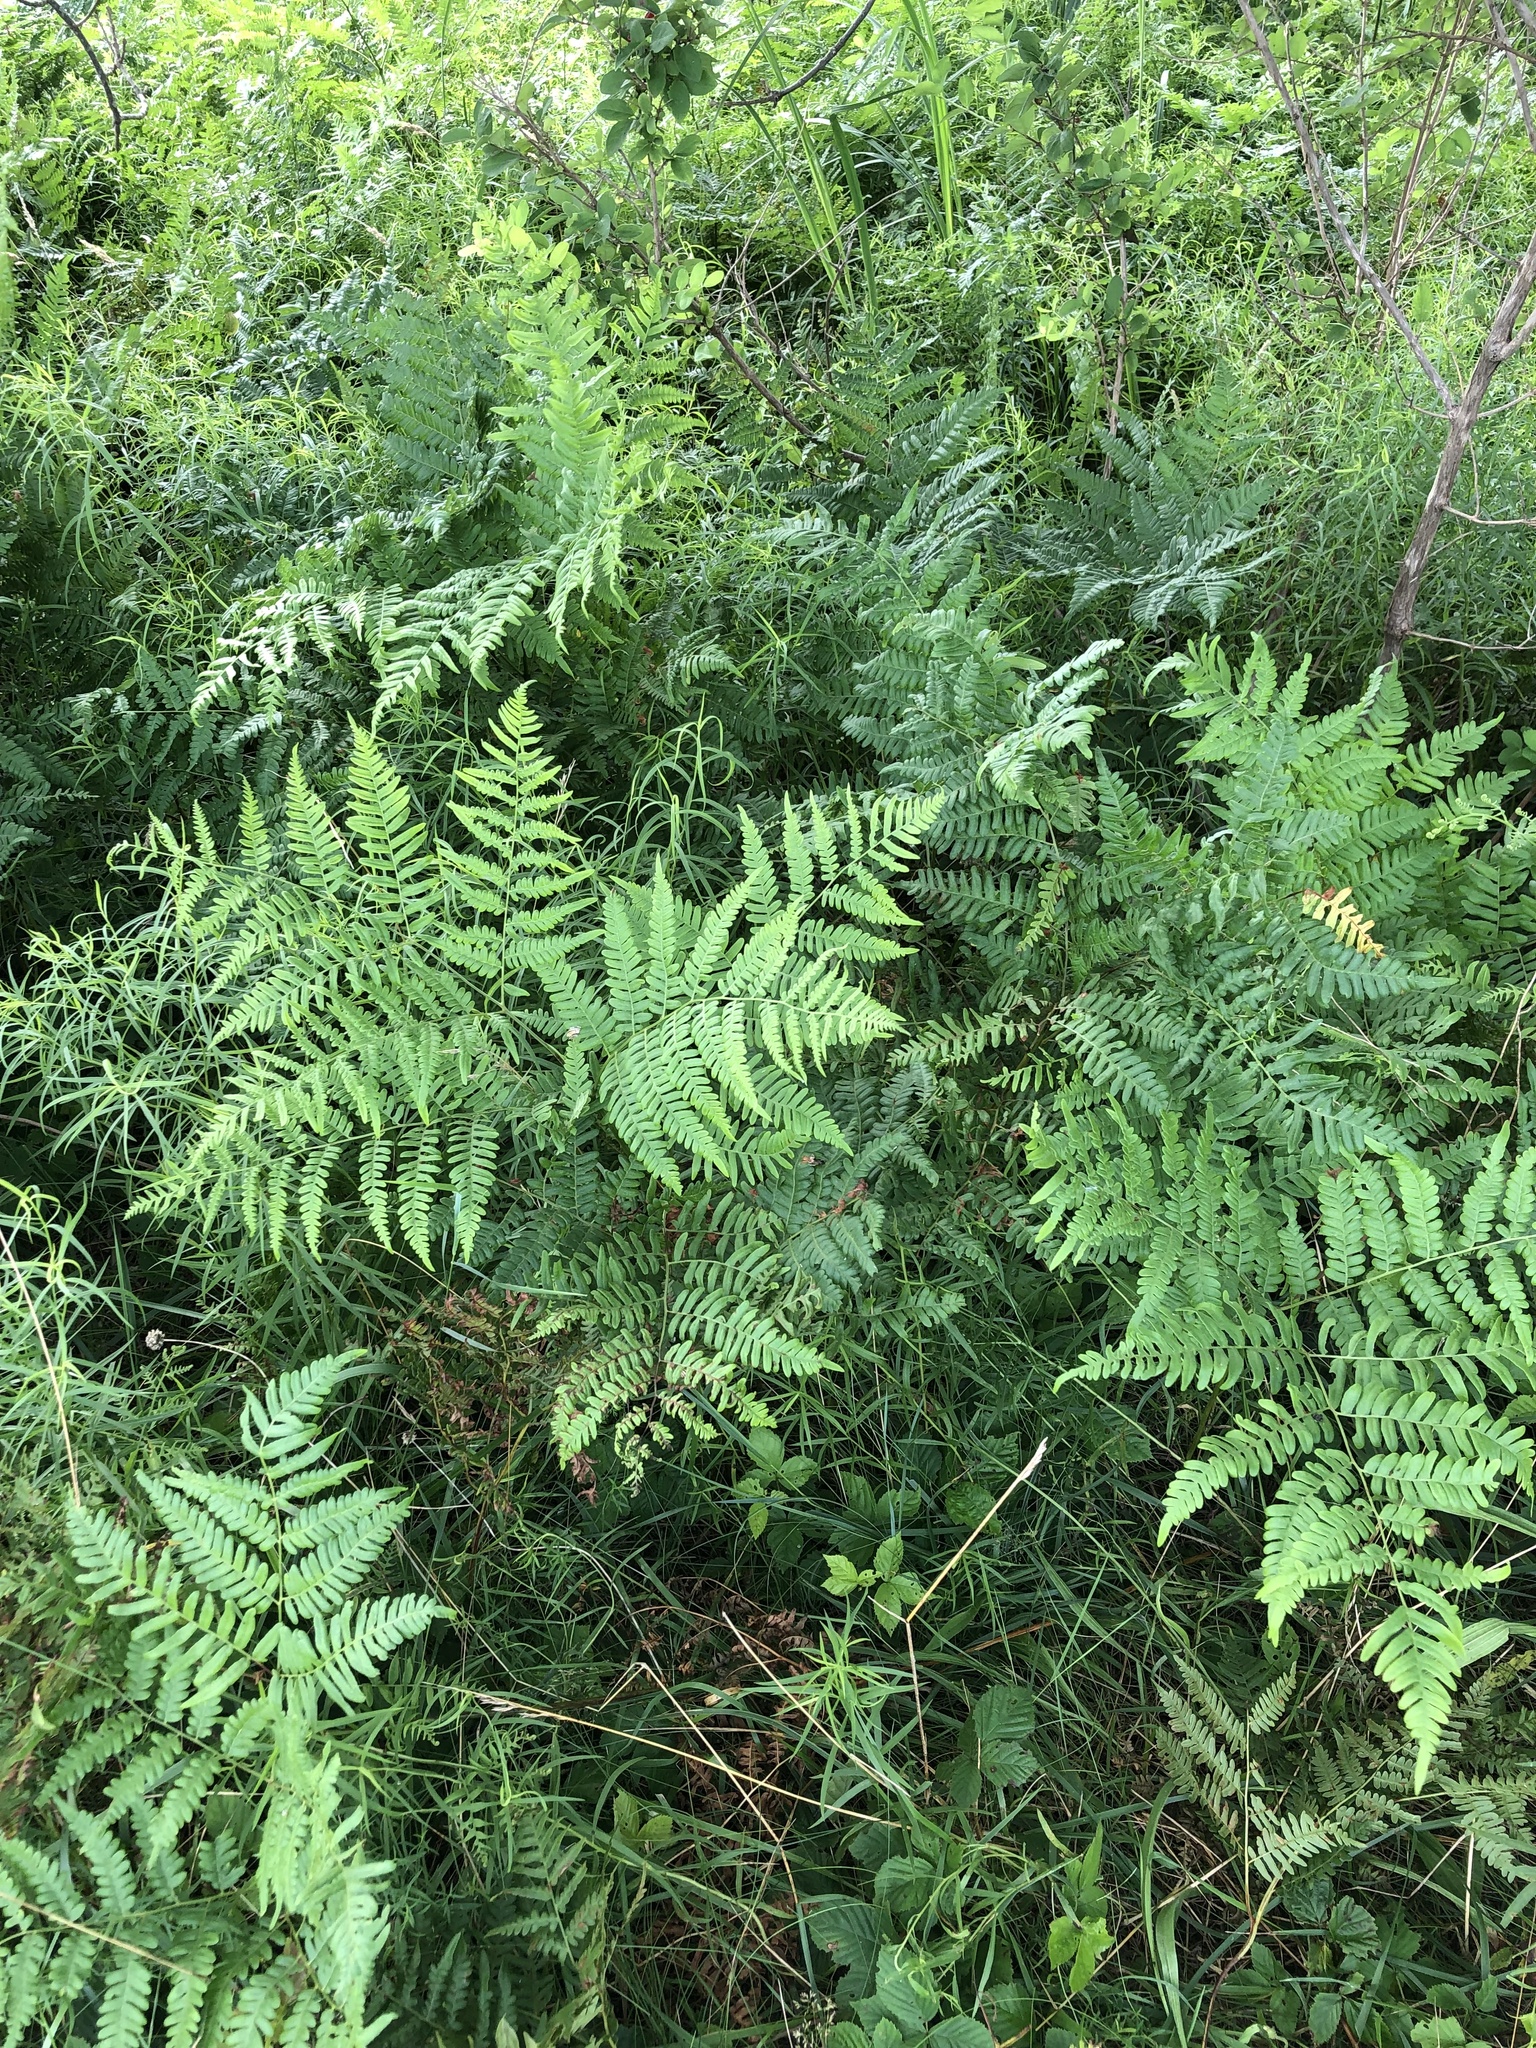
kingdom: Plantae
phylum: Tracheophyta
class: Polypodiopsida
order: Polypodiales
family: Dennstaedtiaceae
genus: Pteridium
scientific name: Pteridium aquilinum
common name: Bracken
